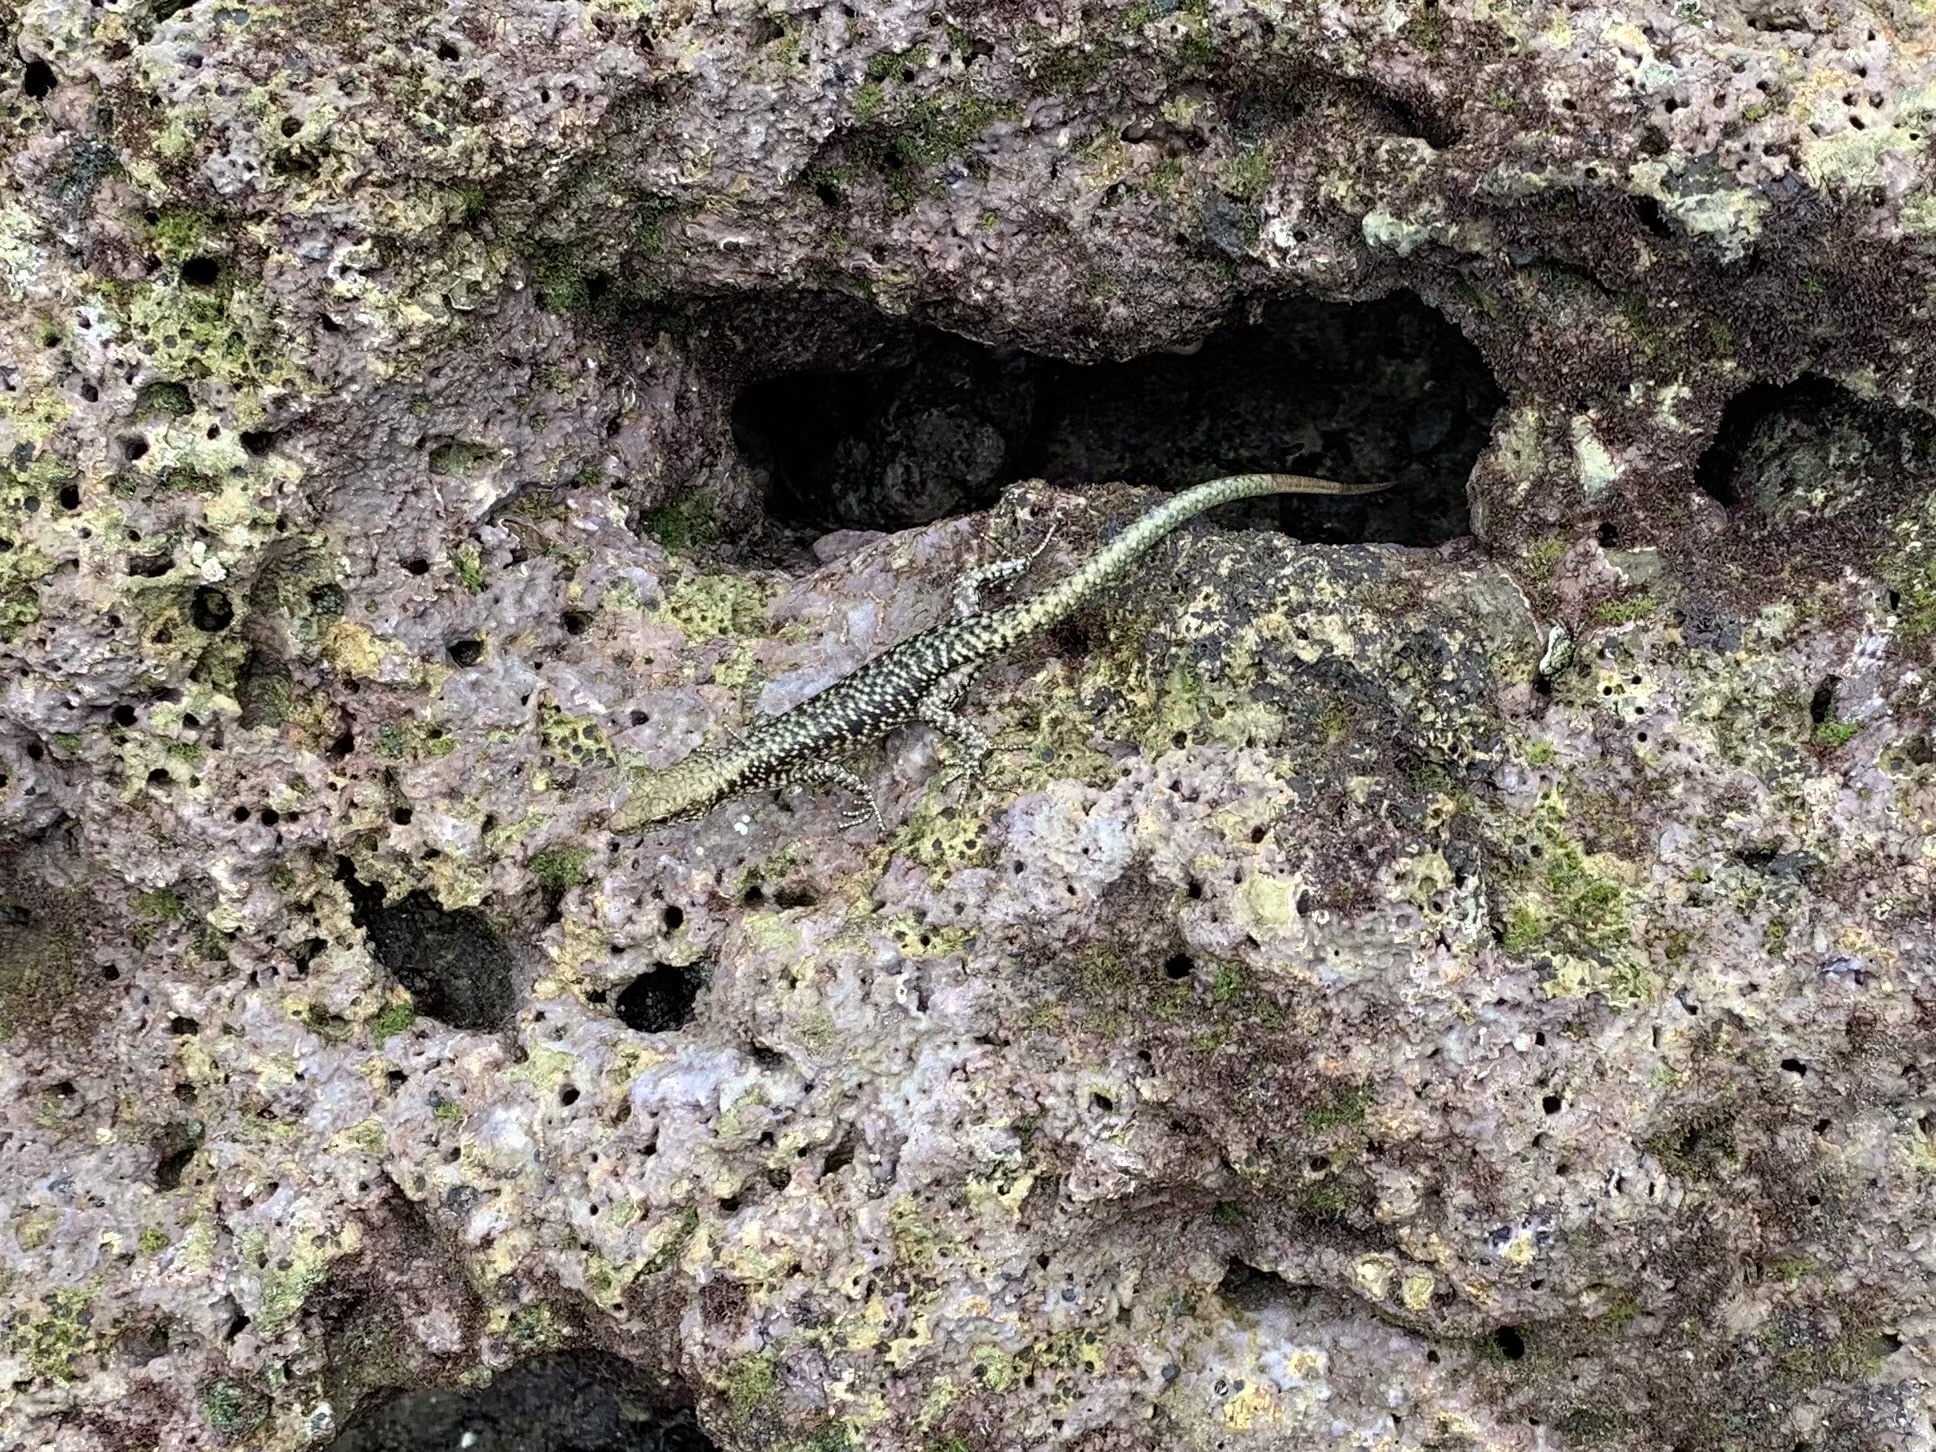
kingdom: Animalia
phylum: Chordata
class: Squamata
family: Scincidae
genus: Emoia
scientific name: Emoia atrocostata
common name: Littoral skink
